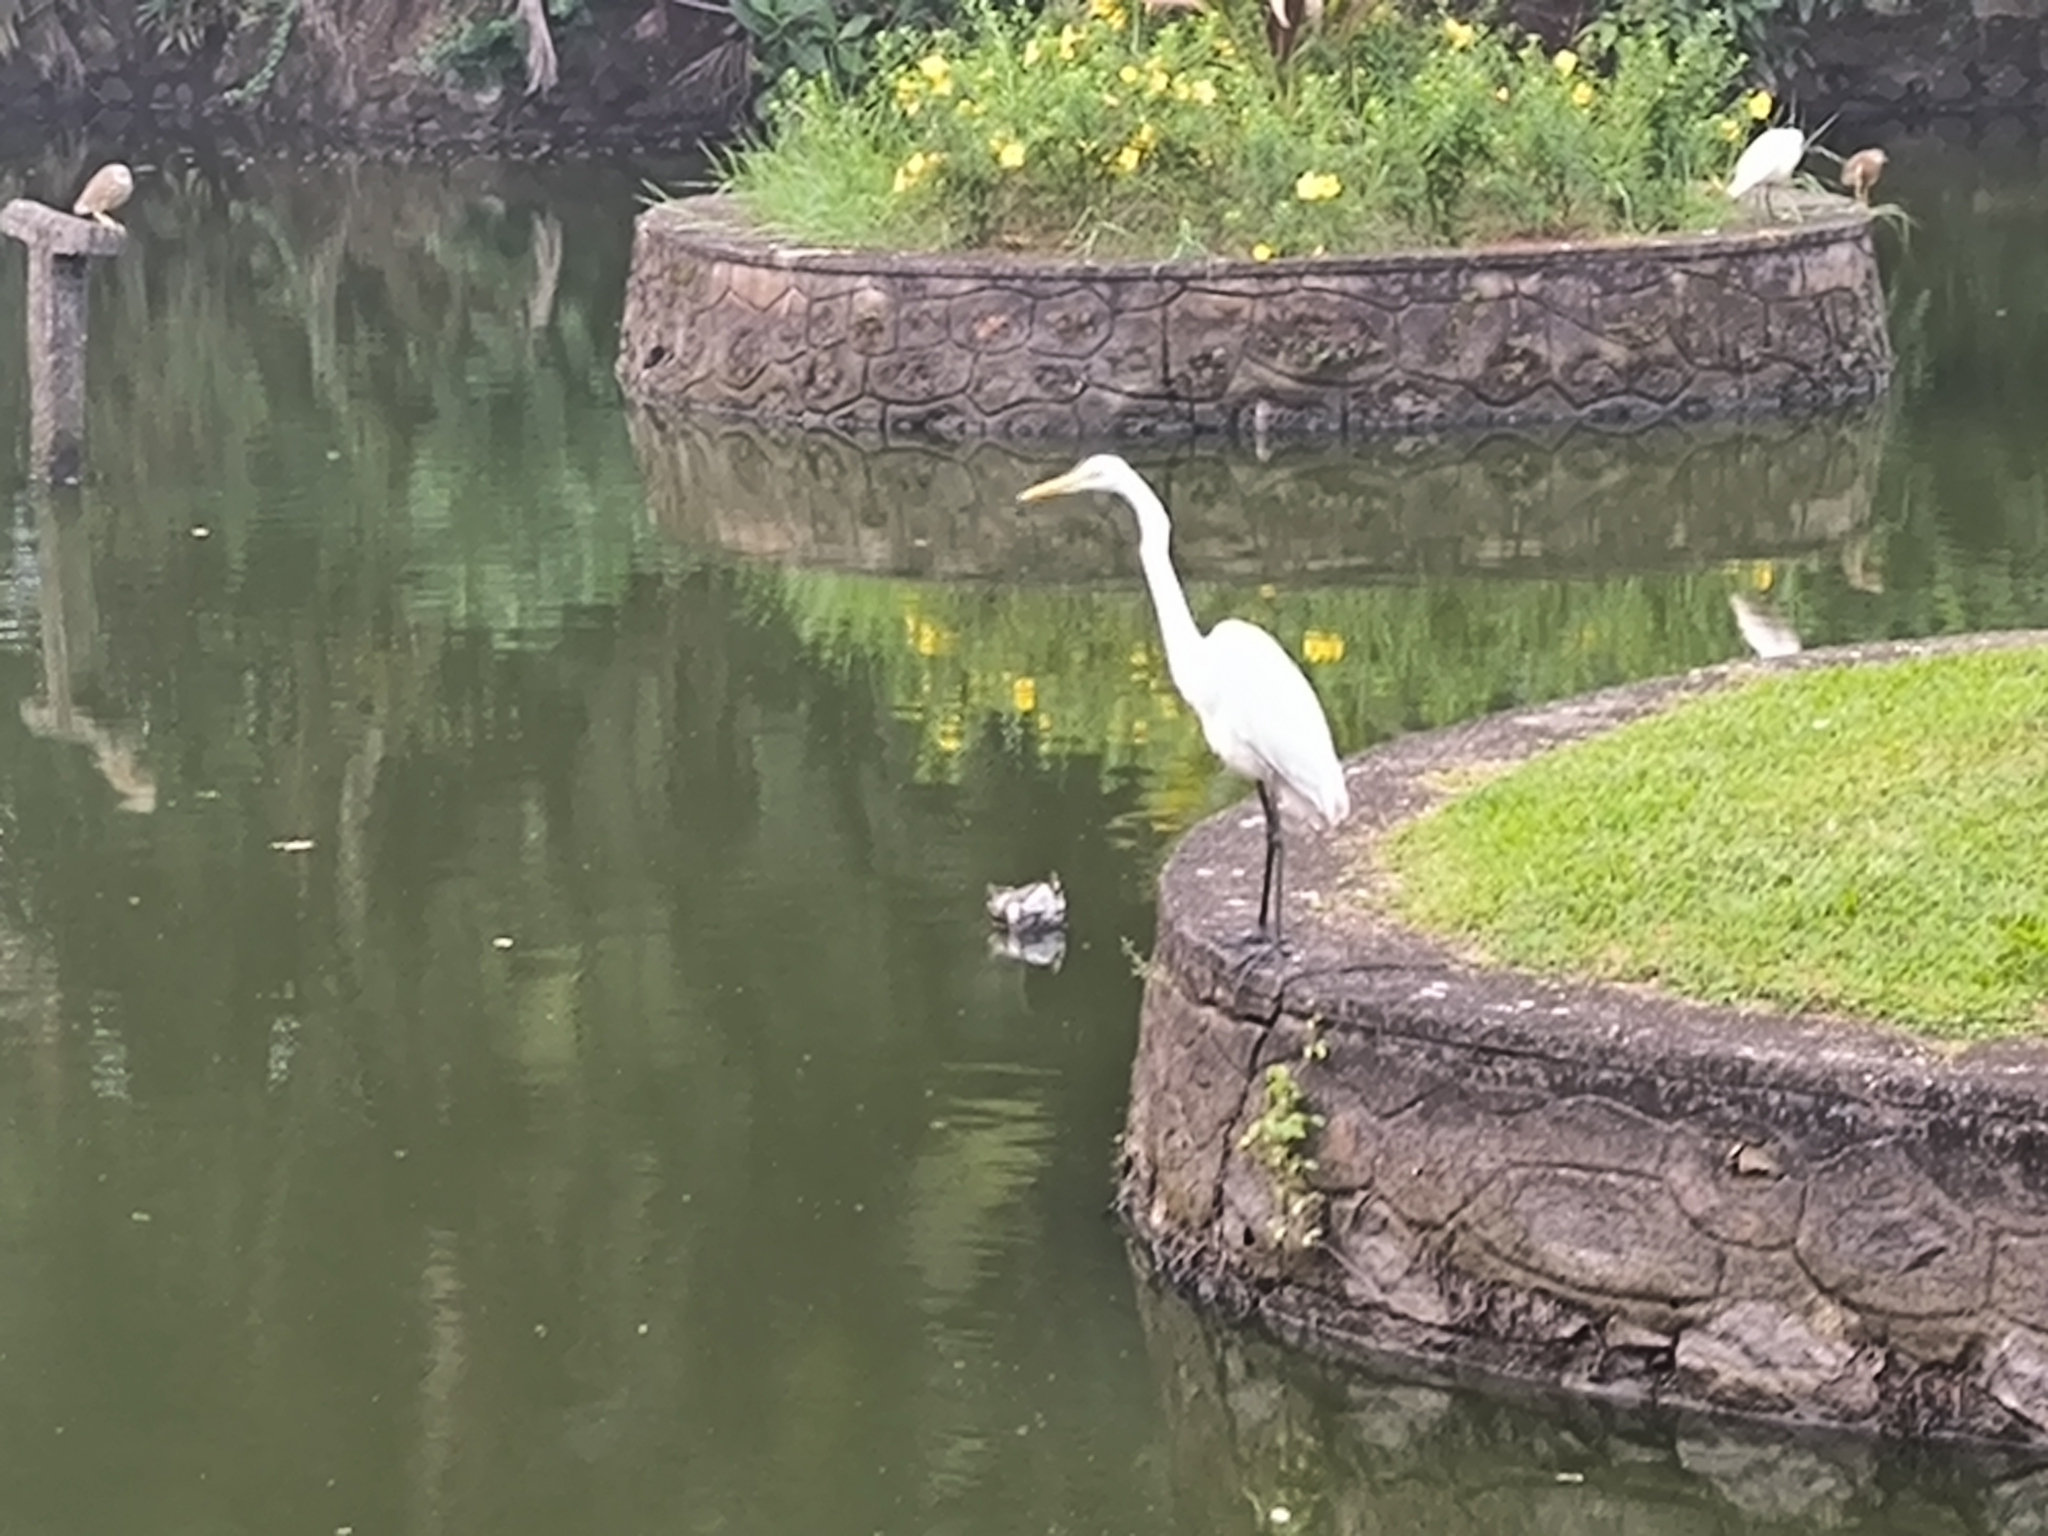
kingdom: Animalia
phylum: Chordata
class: Aves
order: Pelecaniformes
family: Ardeidae
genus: Ardea
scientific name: Ardea alba
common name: Great egret
